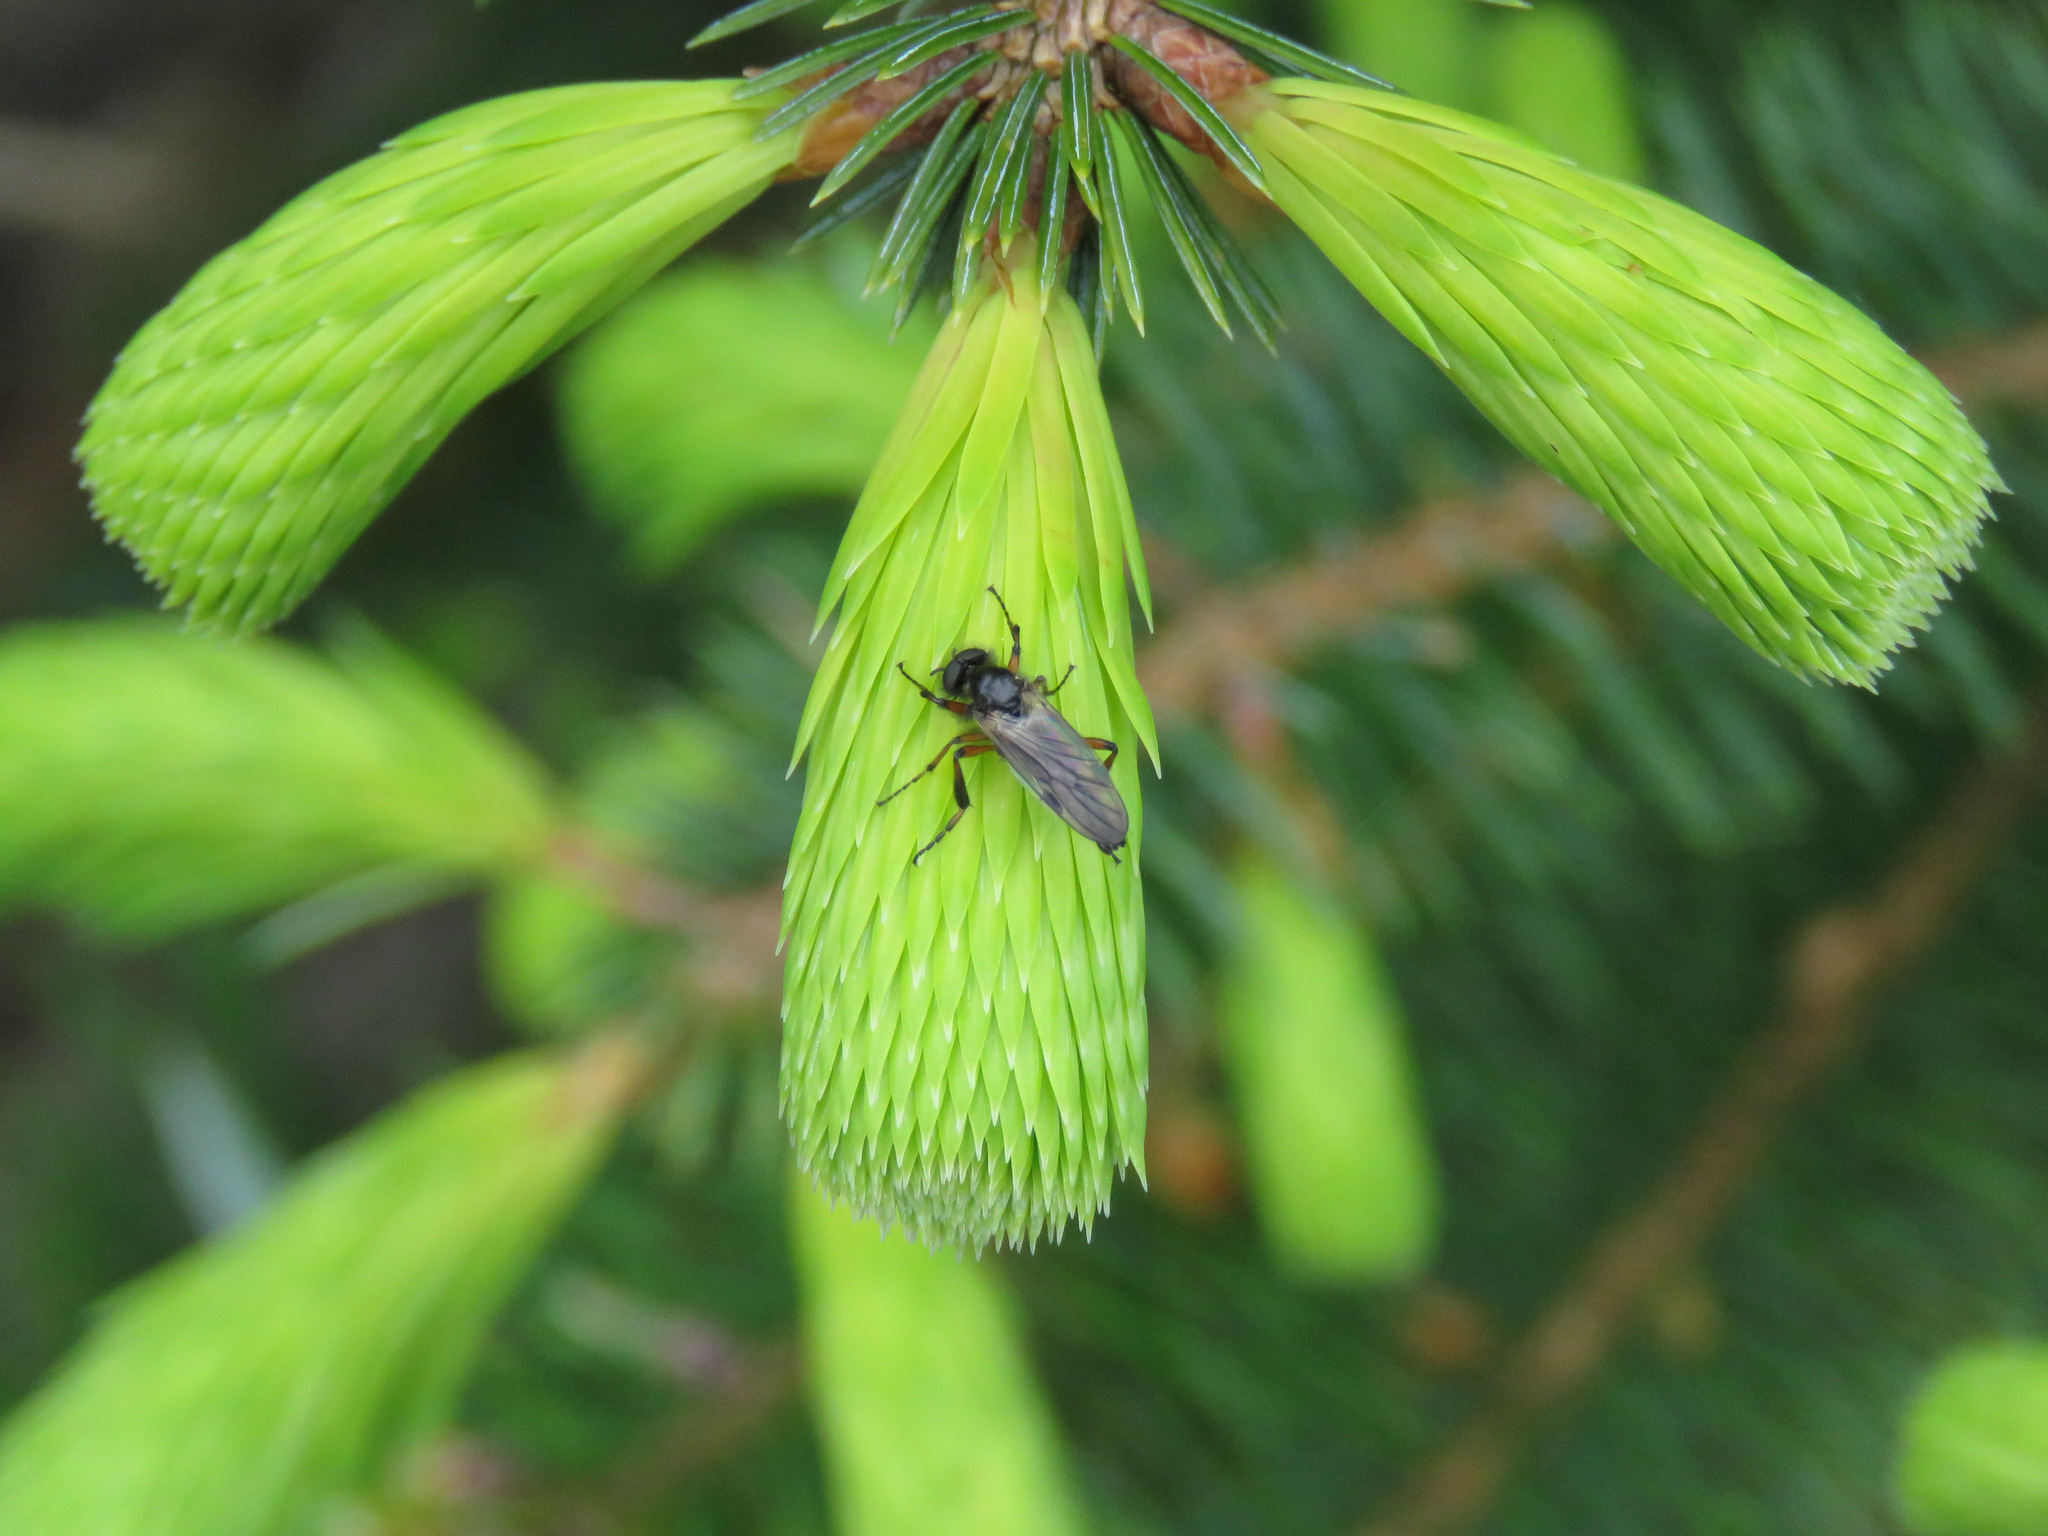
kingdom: Animalia
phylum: Arthropoda
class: Insecta
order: Diptera
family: Bibionidae
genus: Bibio
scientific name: Bibio
